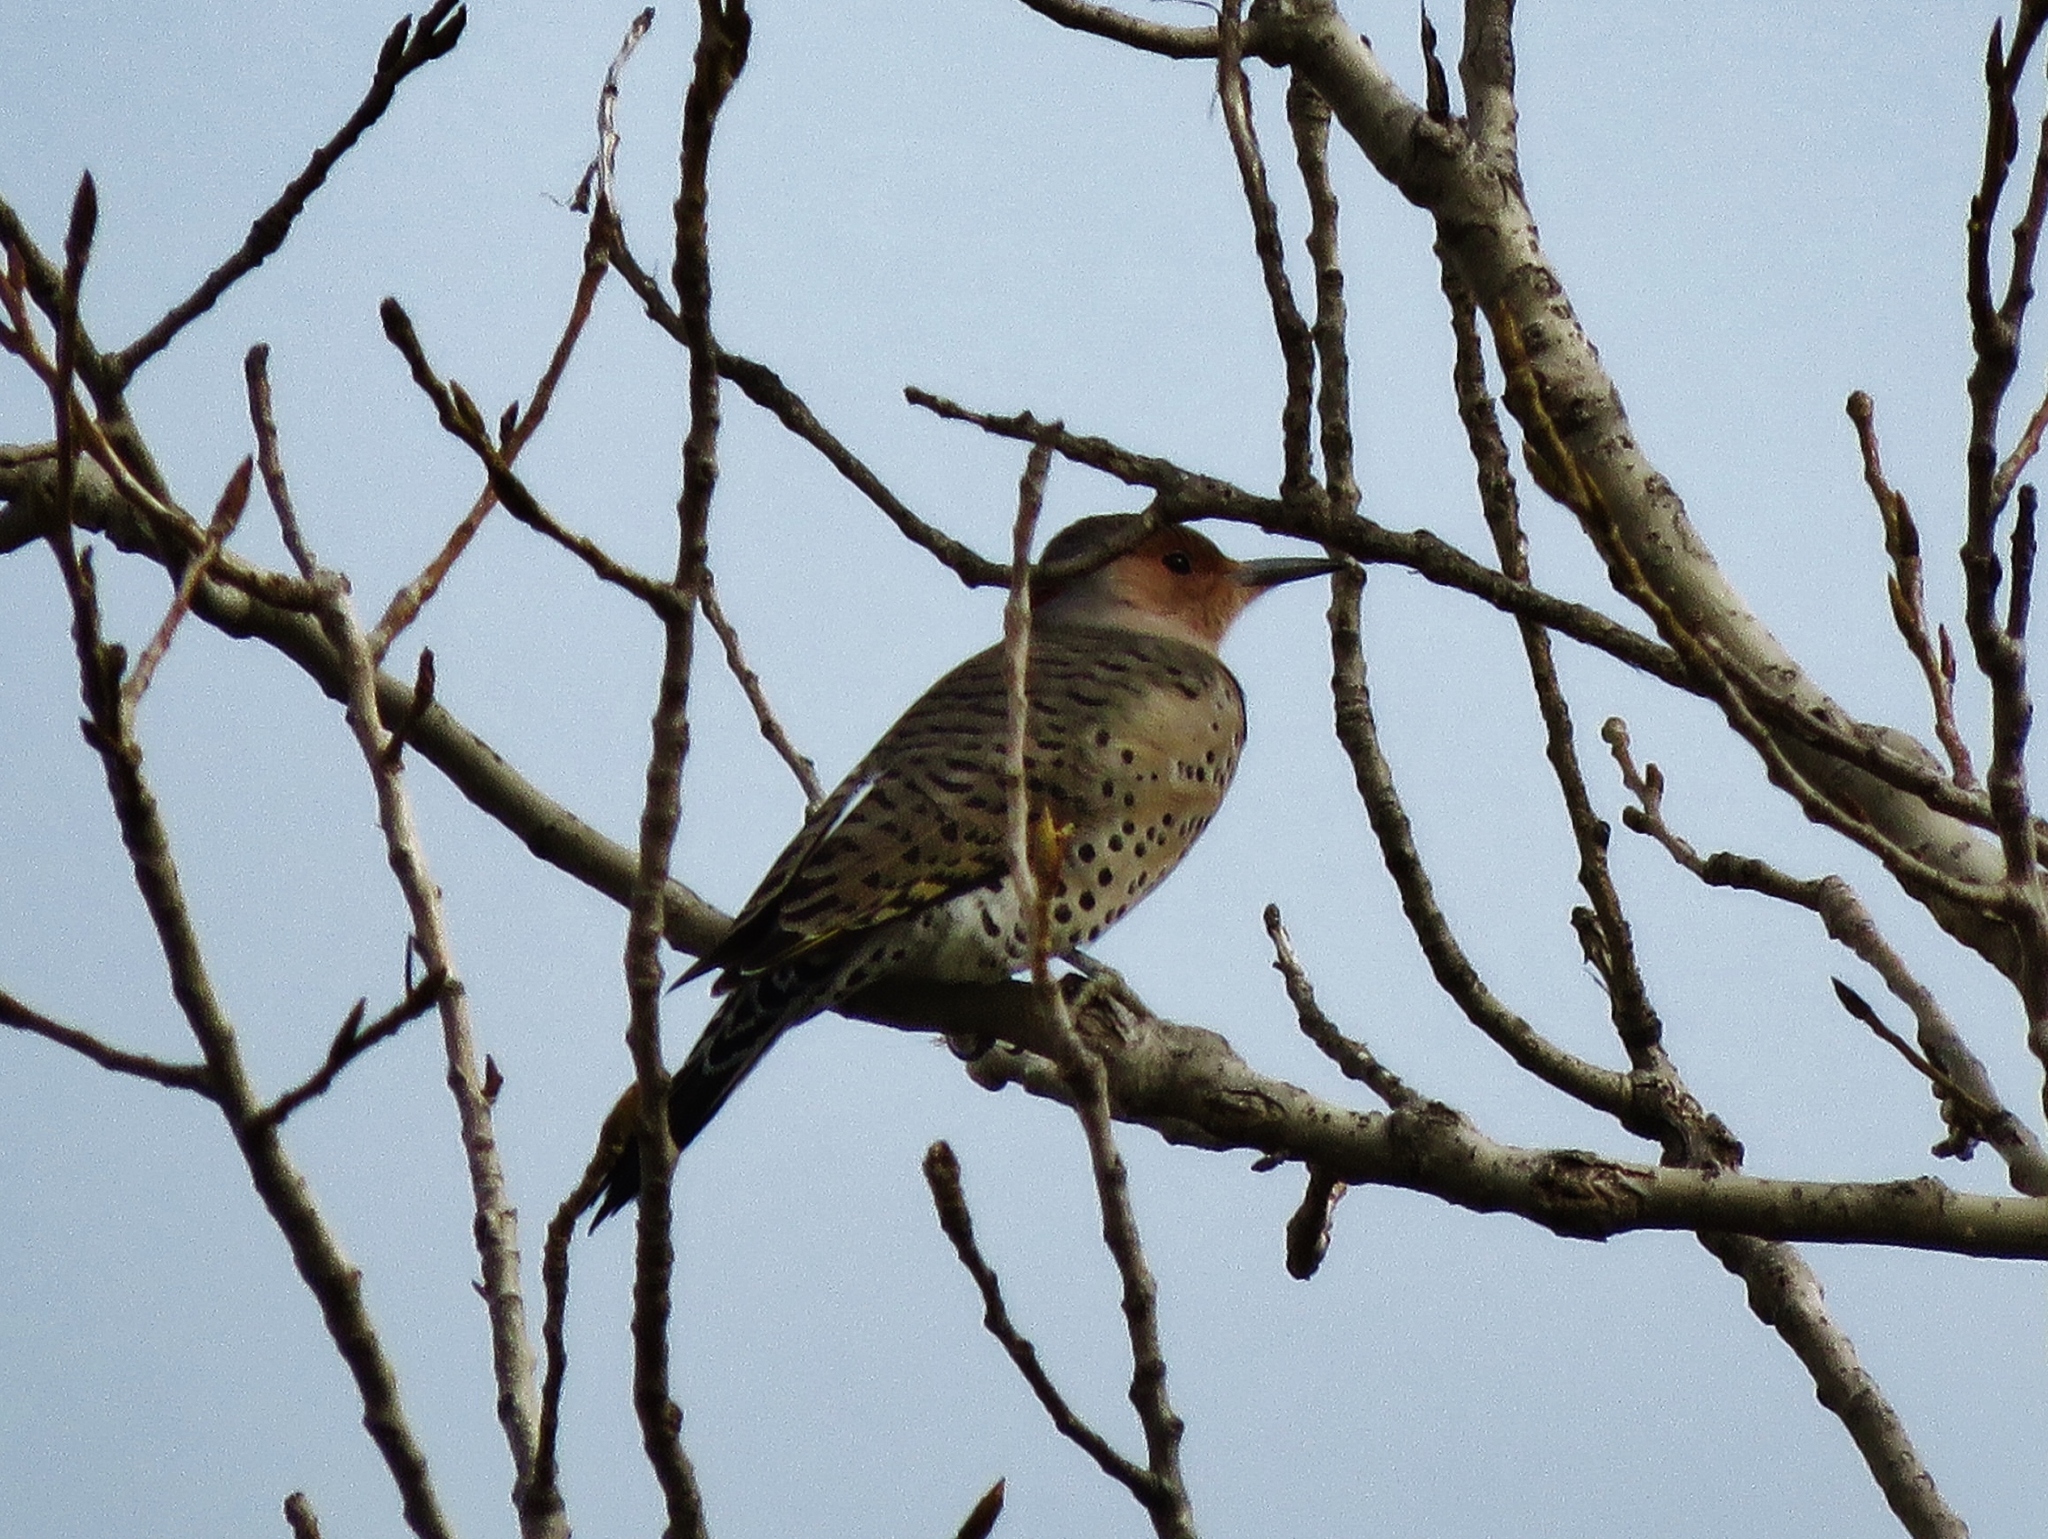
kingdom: Animalia
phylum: Chordata
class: Aves
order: Piciformes
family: Picidae
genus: Colaptes
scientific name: Colaptes auratus
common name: Northern flicker
